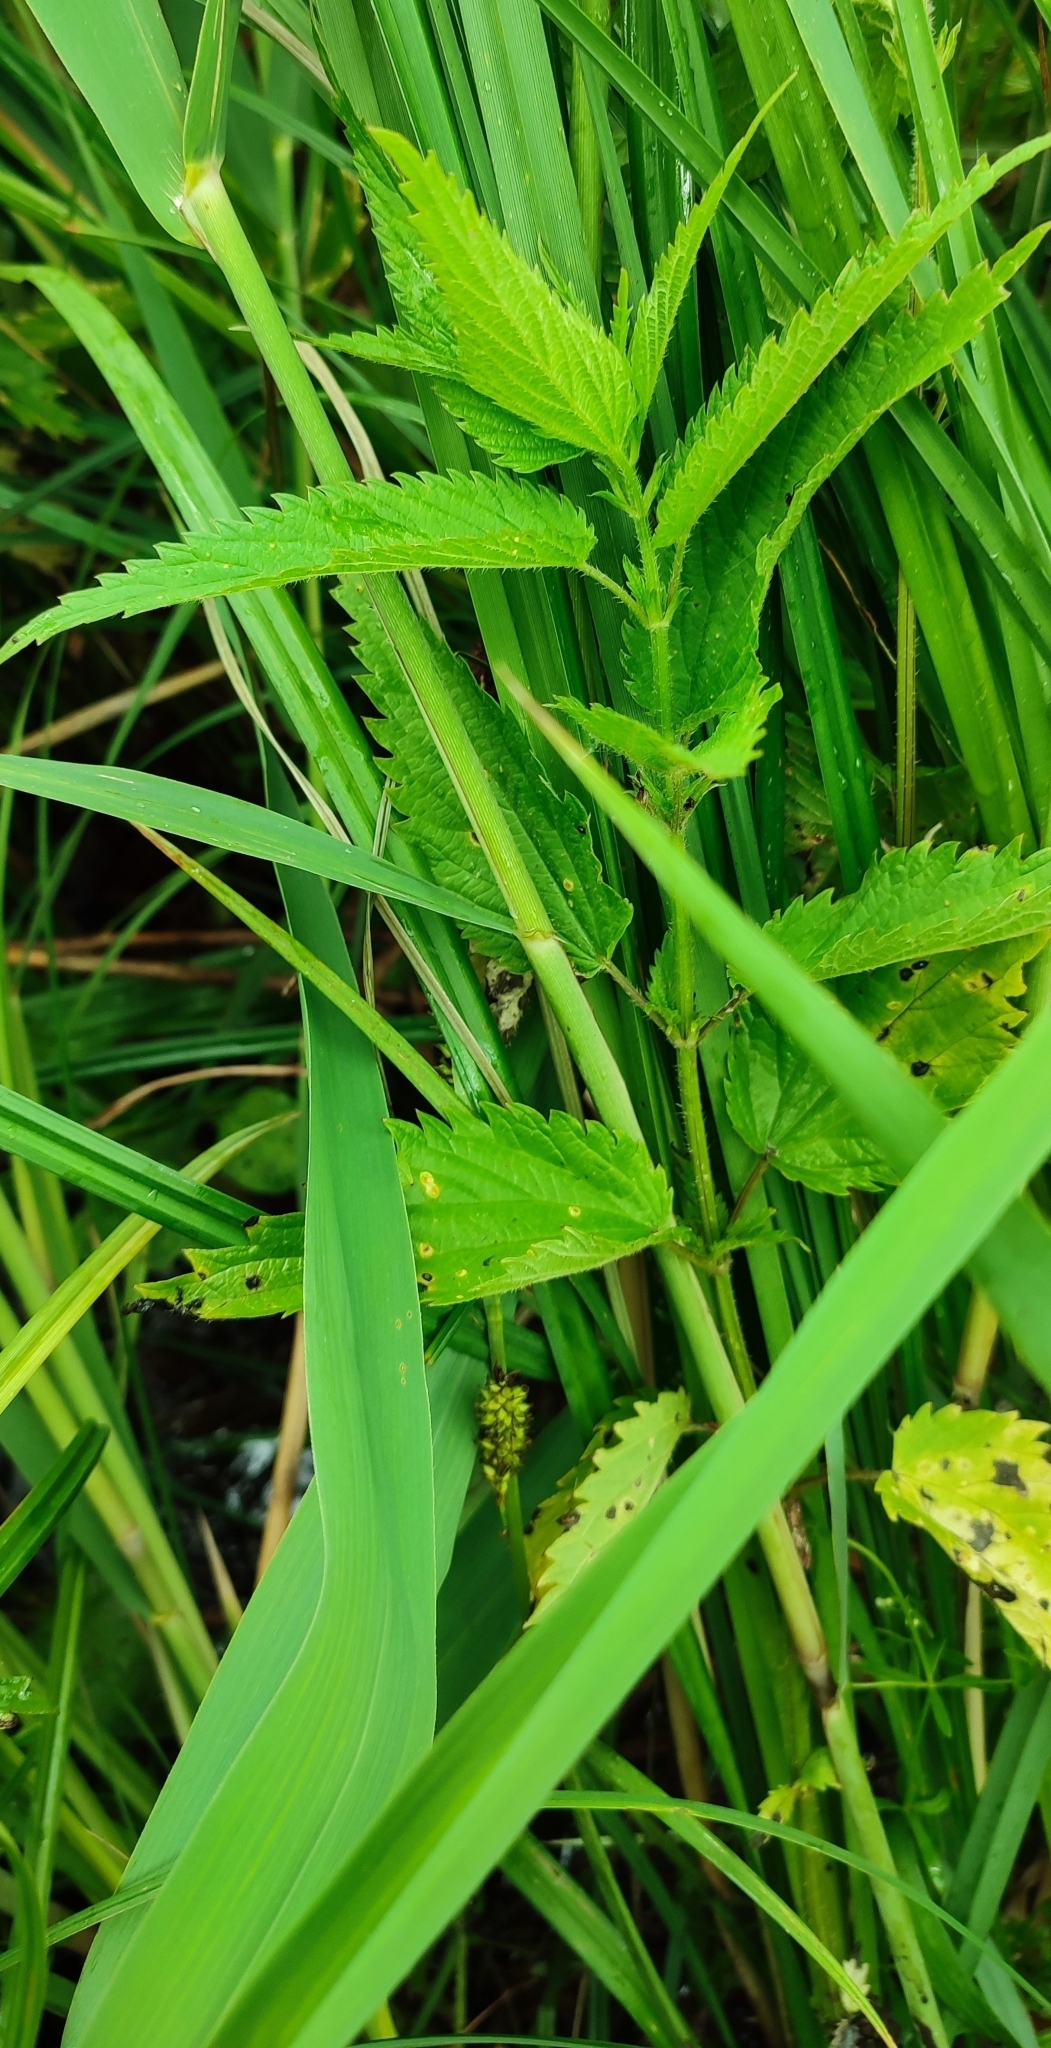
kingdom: Plantae
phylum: Tracheophyta
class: Magnoliopsida
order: Rosales
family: Urticaceae
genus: Urtica
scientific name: Urtica dioica
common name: Common nettle
